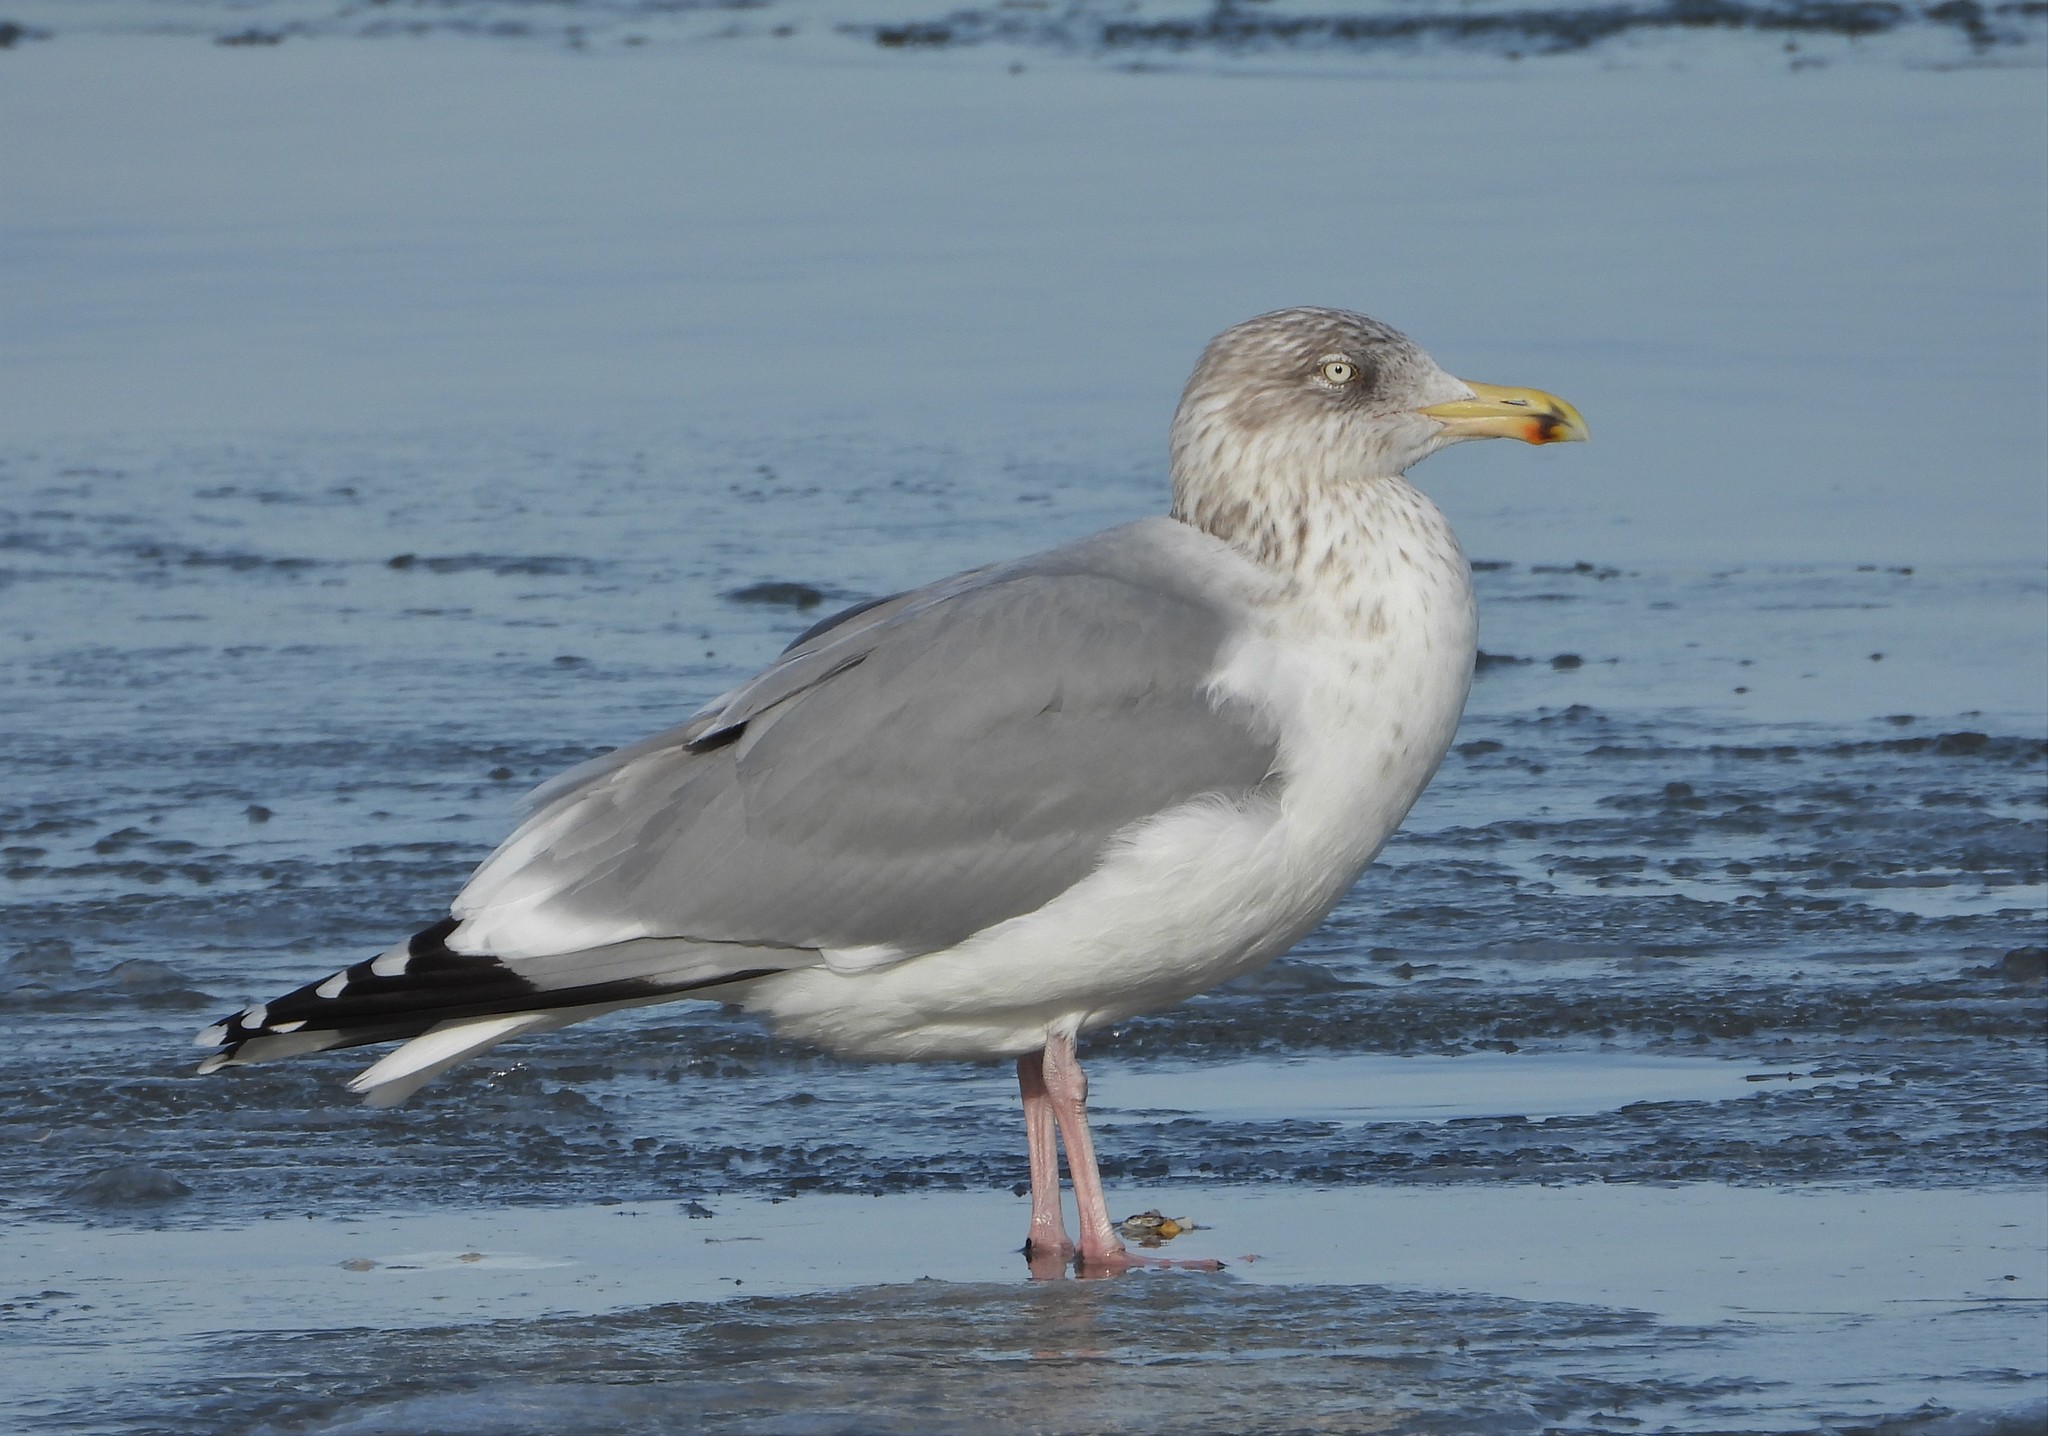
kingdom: Animalia
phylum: Chordata
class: Aves
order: Charadriiformes
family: Laridae
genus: Larus
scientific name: Larus argentatus
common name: Herring gull
